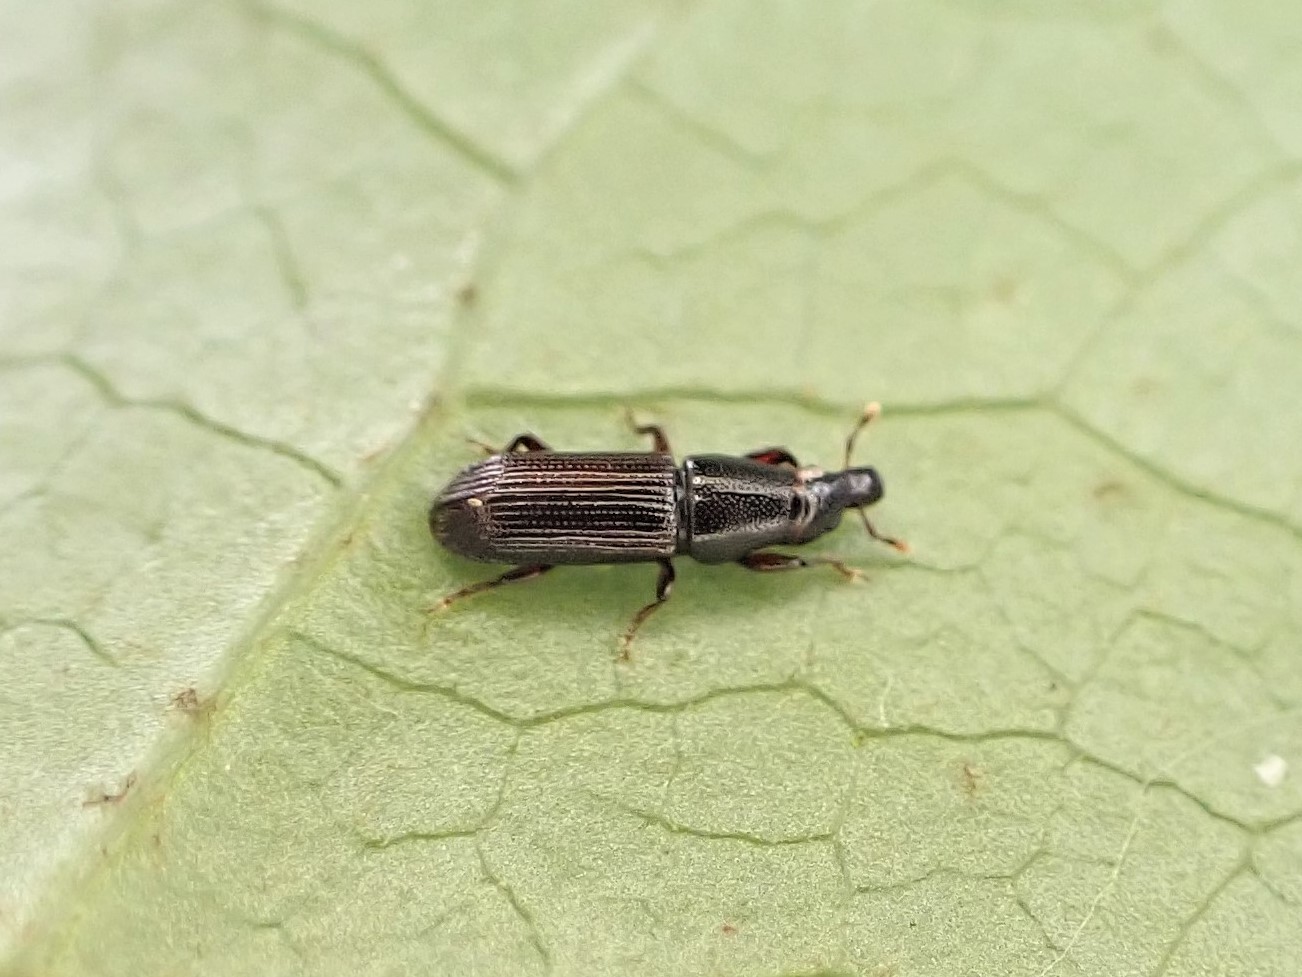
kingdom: Animalia
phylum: Arthropoda
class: Insecta
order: Coleoptera
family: Curculionidae
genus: Zenoteratus
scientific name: Zenoteratus macrocephalus
